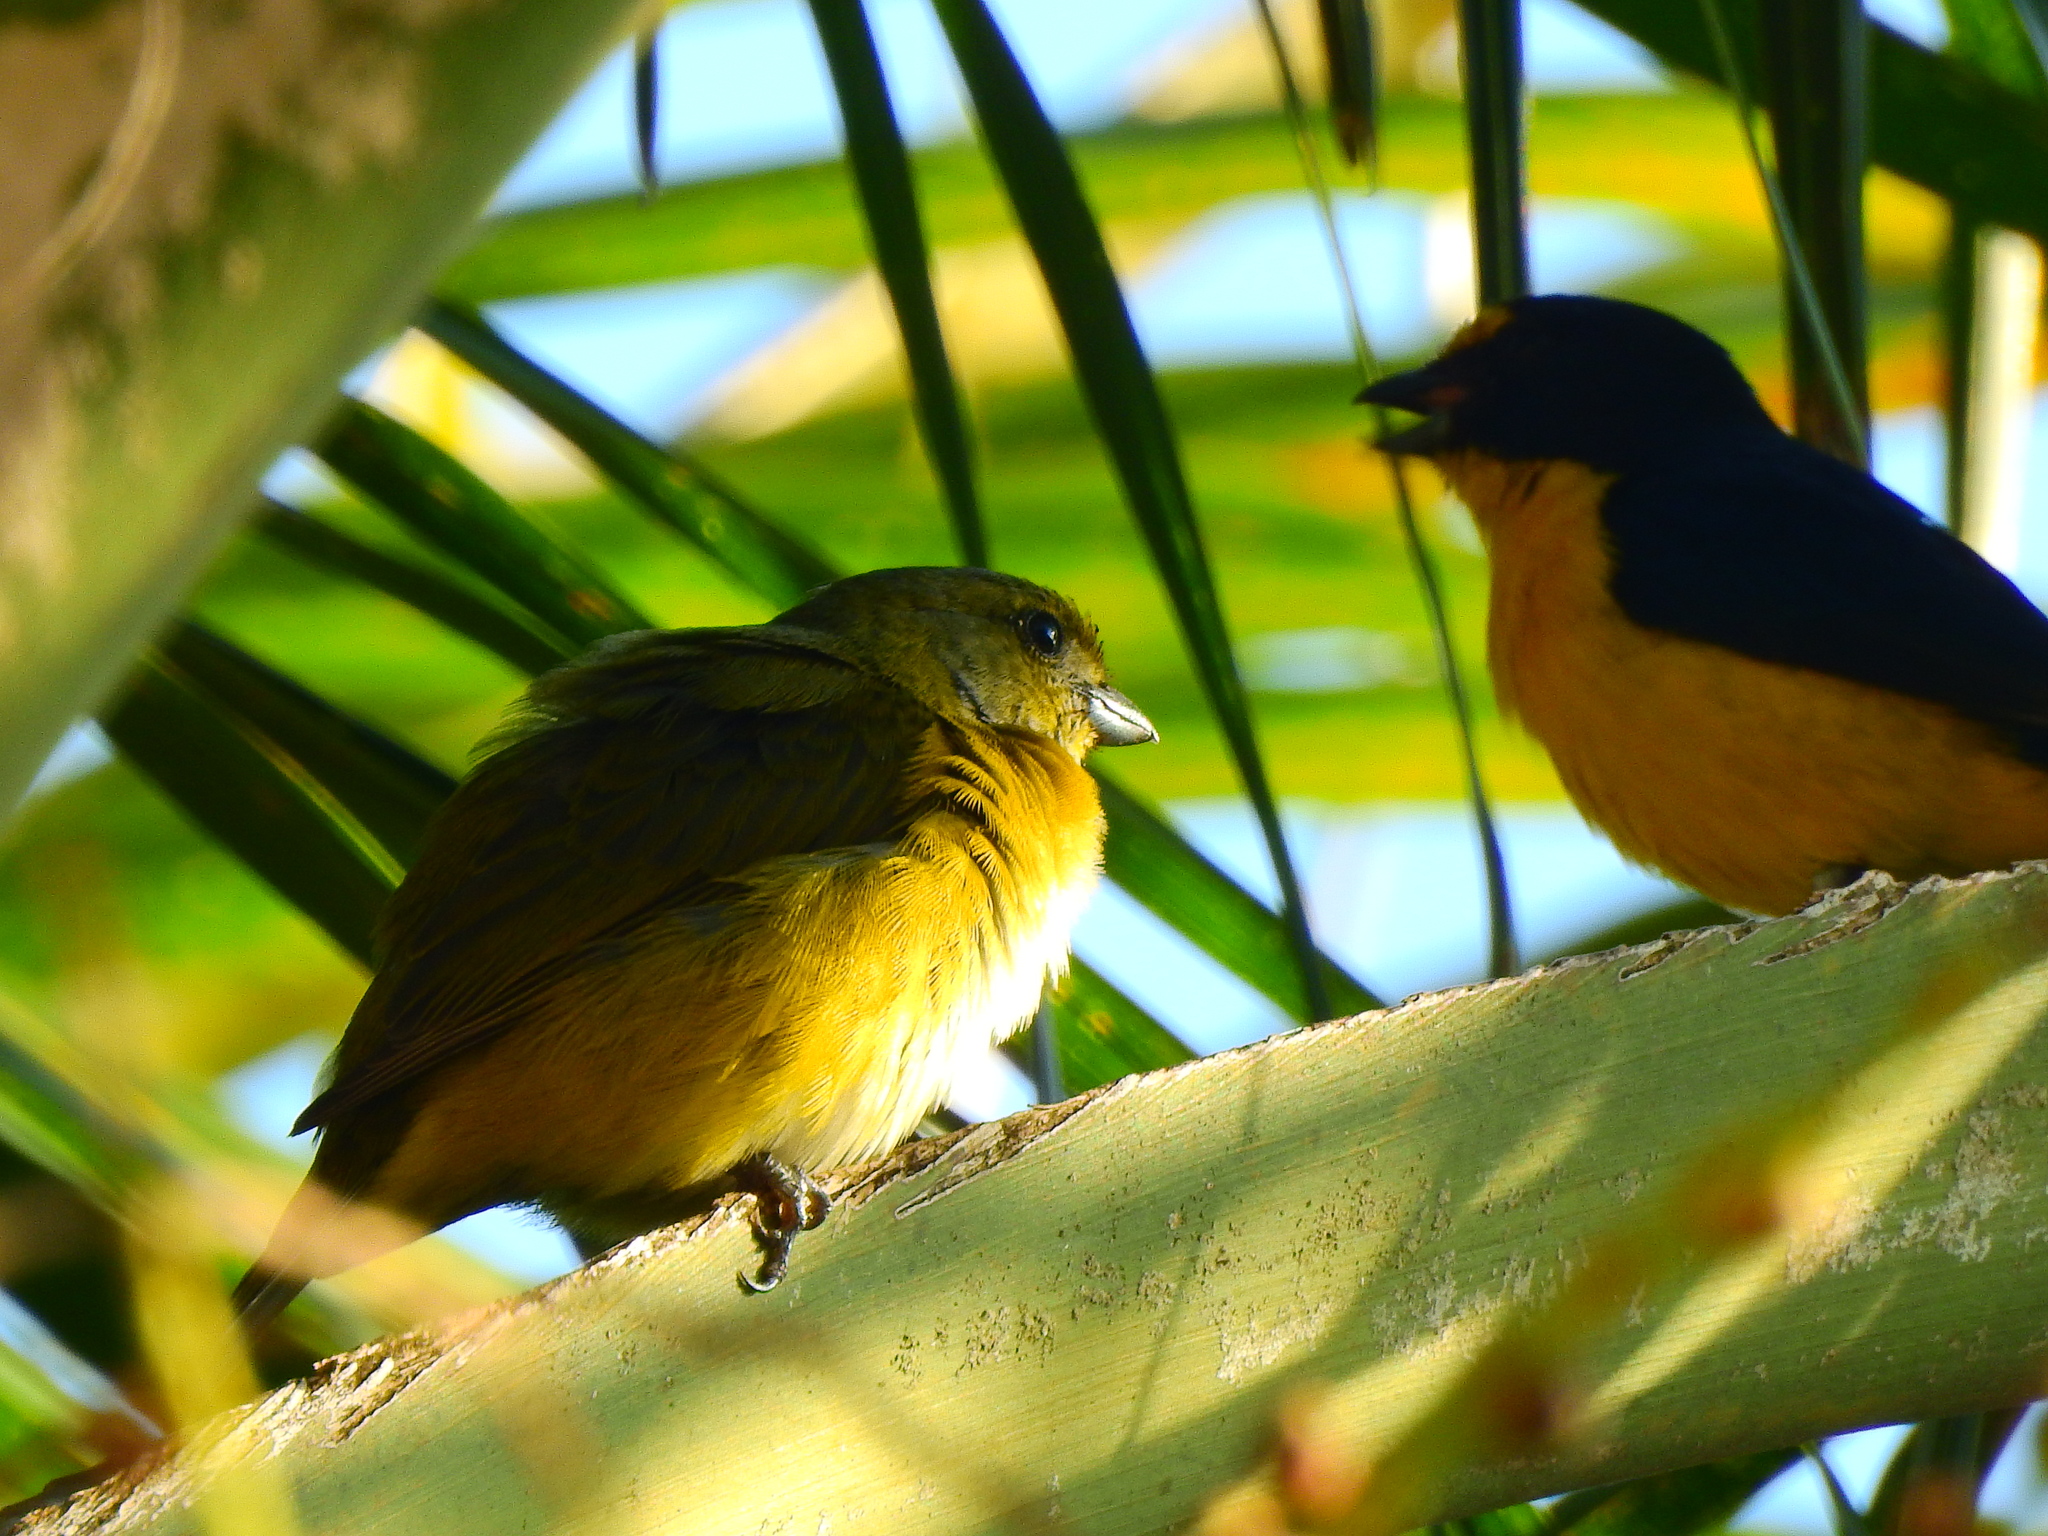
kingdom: Animalia
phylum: Chordata
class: Aves
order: Passeriformes
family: Fringillidae
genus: Euphonia
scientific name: Euphonia hirundinacea
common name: Yellow-throated euphonia
